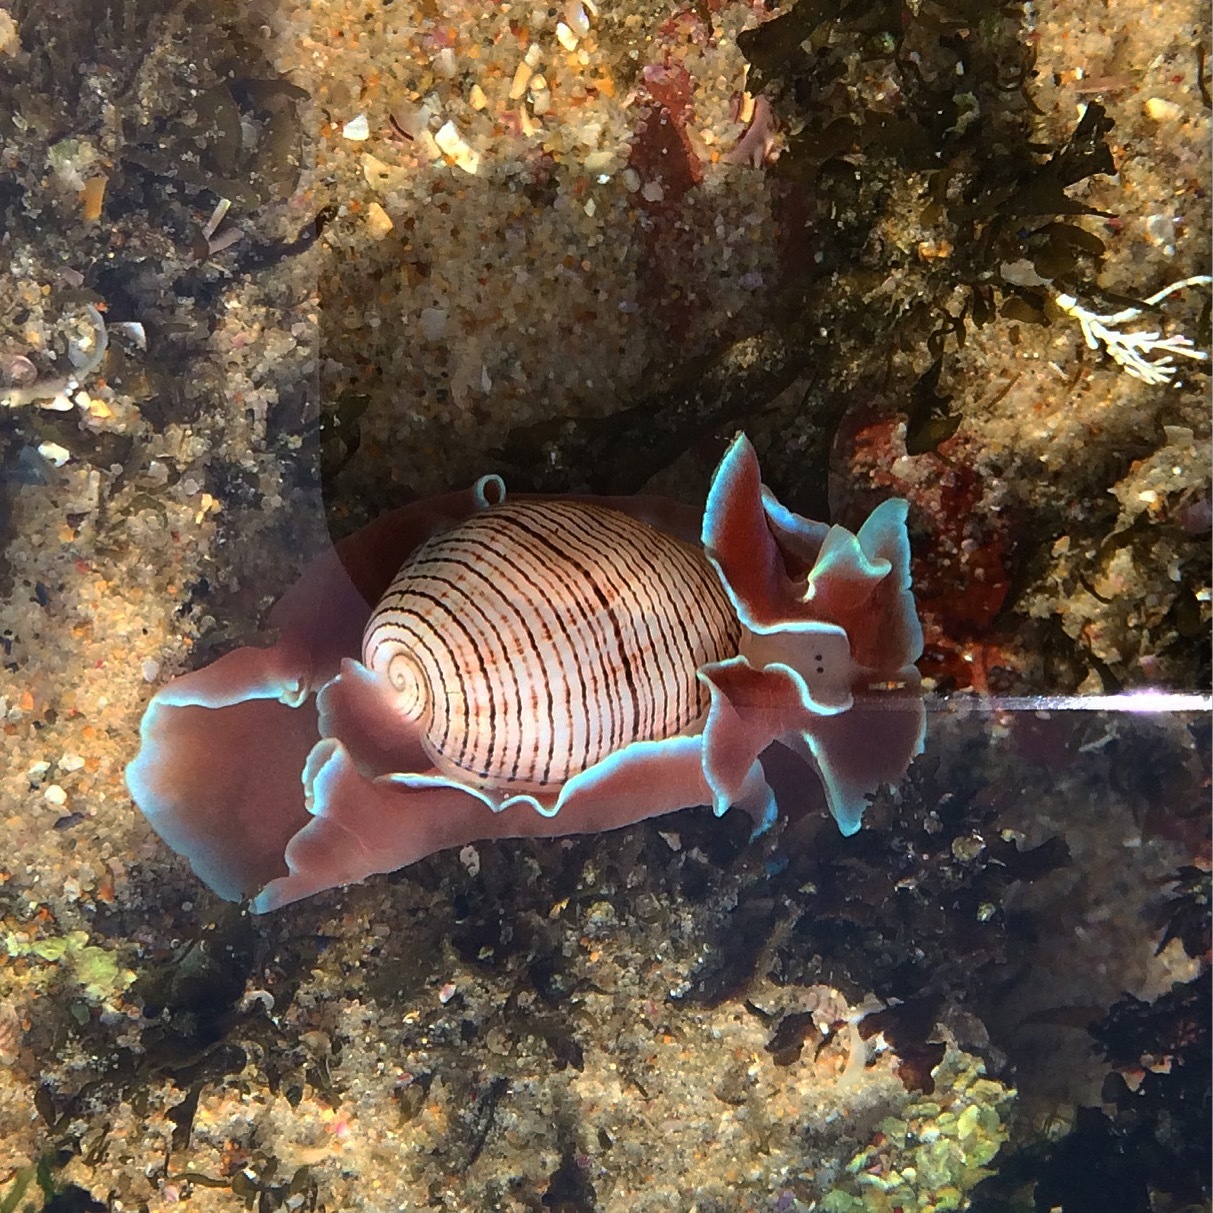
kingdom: Animalia
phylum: Mollusca
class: Gastropoda
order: Cephalaspidea
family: Aplustridae
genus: Hydatina
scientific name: Hydatina physis
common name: Brown-line paperbubble
